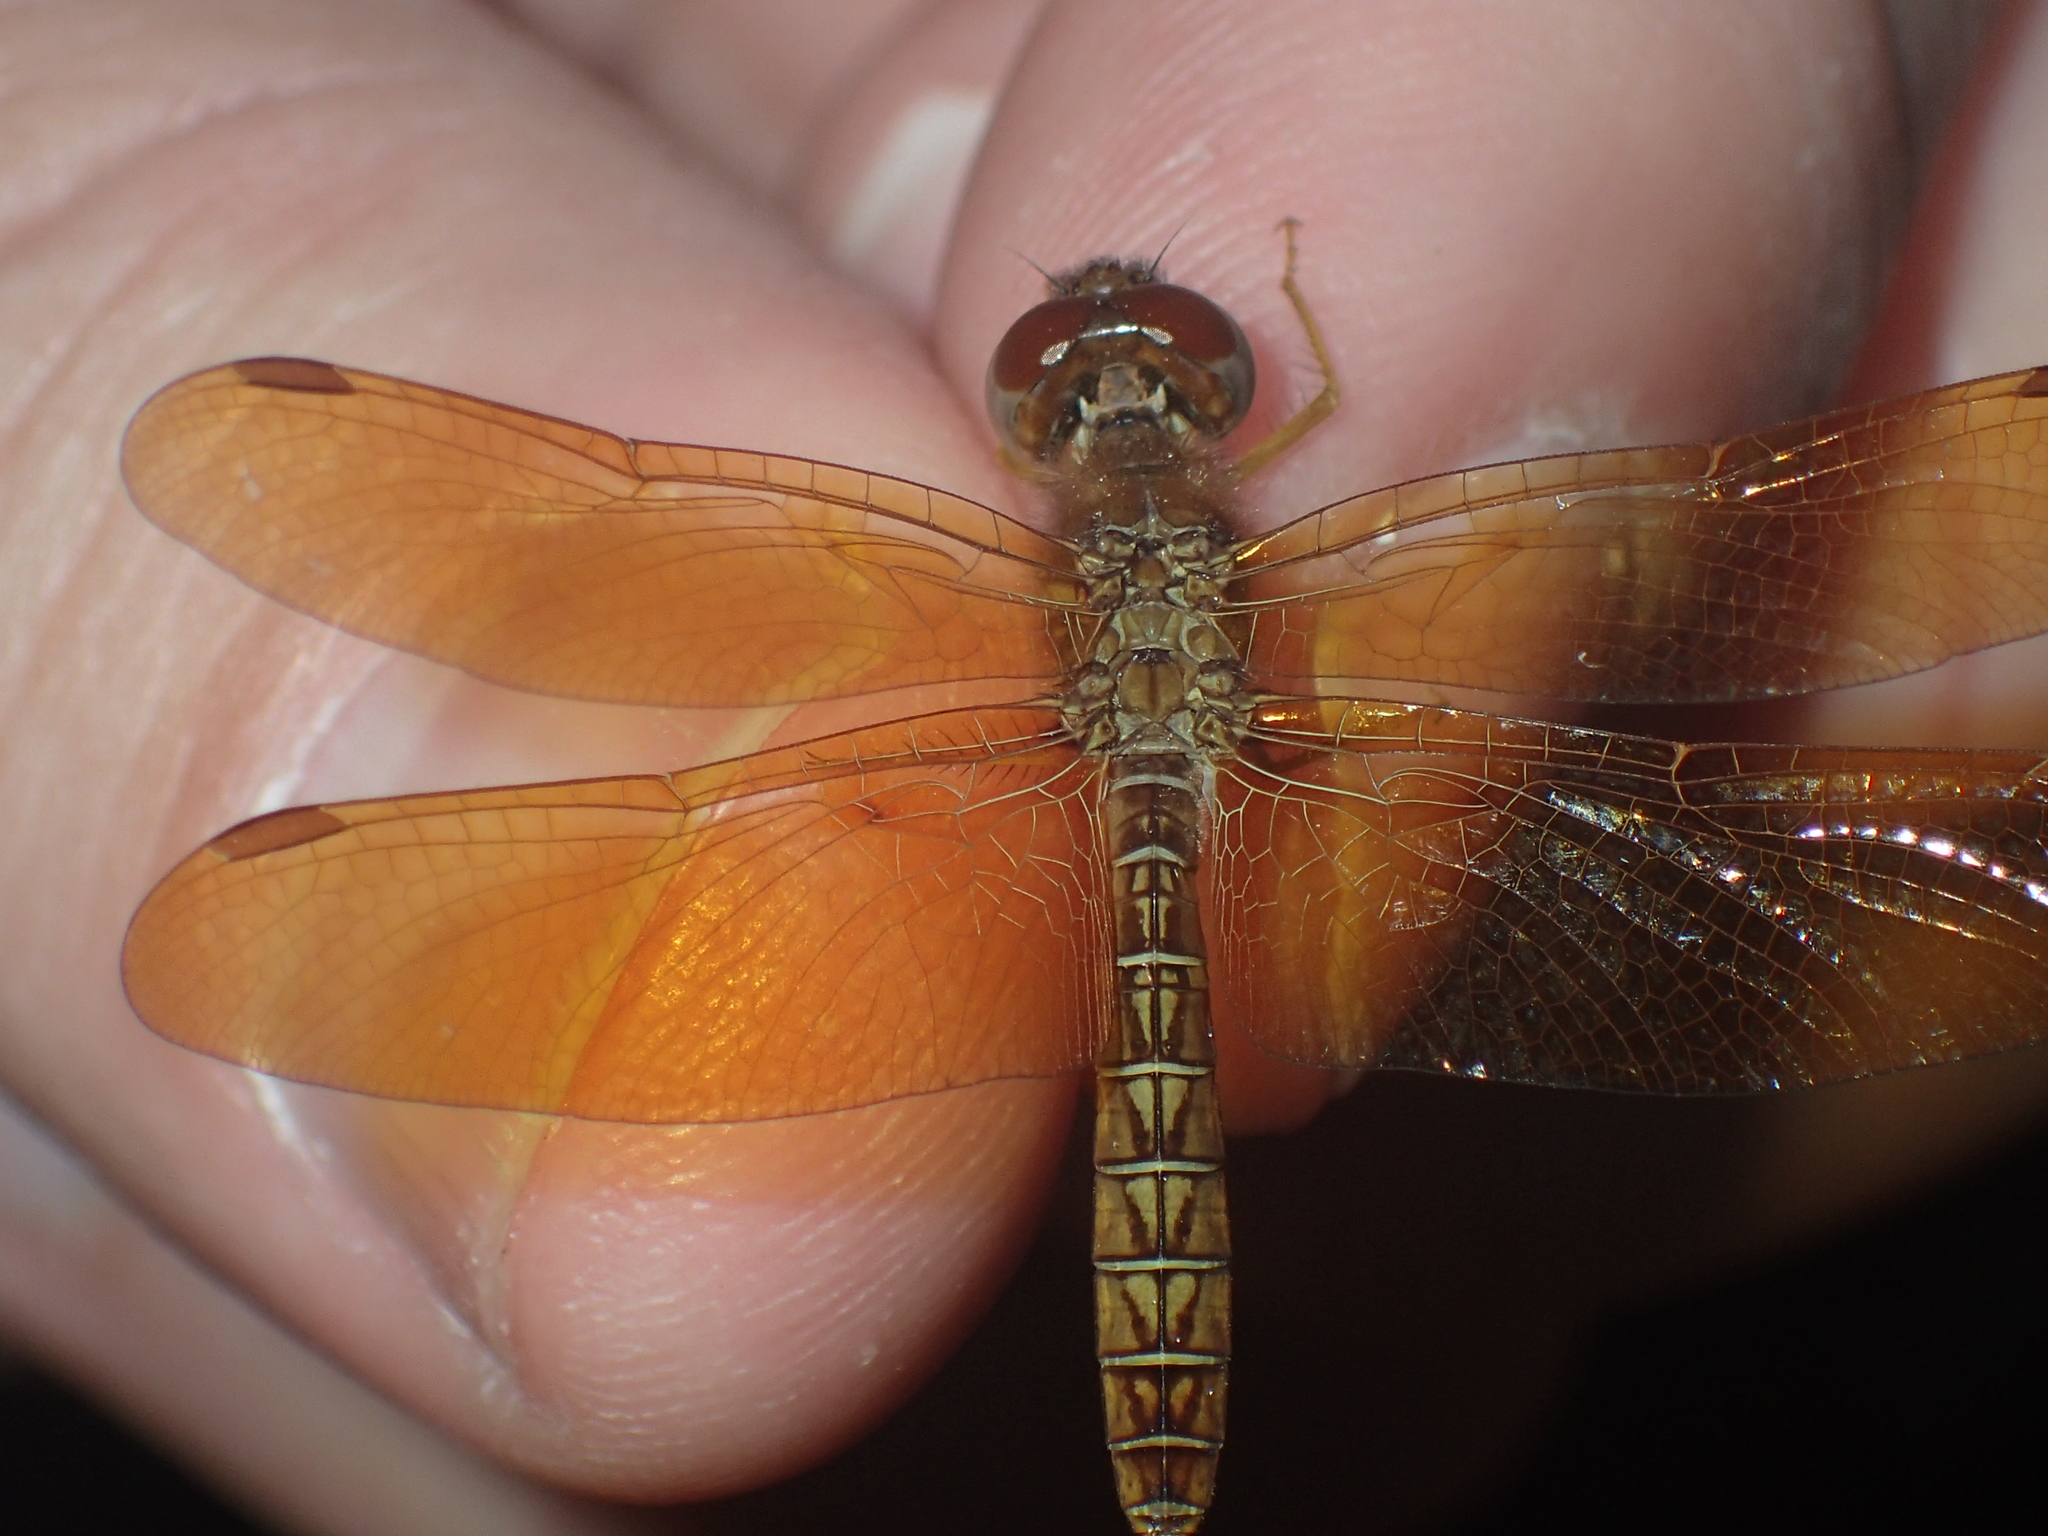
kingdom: Animalia
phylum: Arthropoda
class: Insecta
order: Odonata
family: Libellulidae
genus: Perithemis
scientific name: Perithemis tenera
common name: Eastern amberwing
